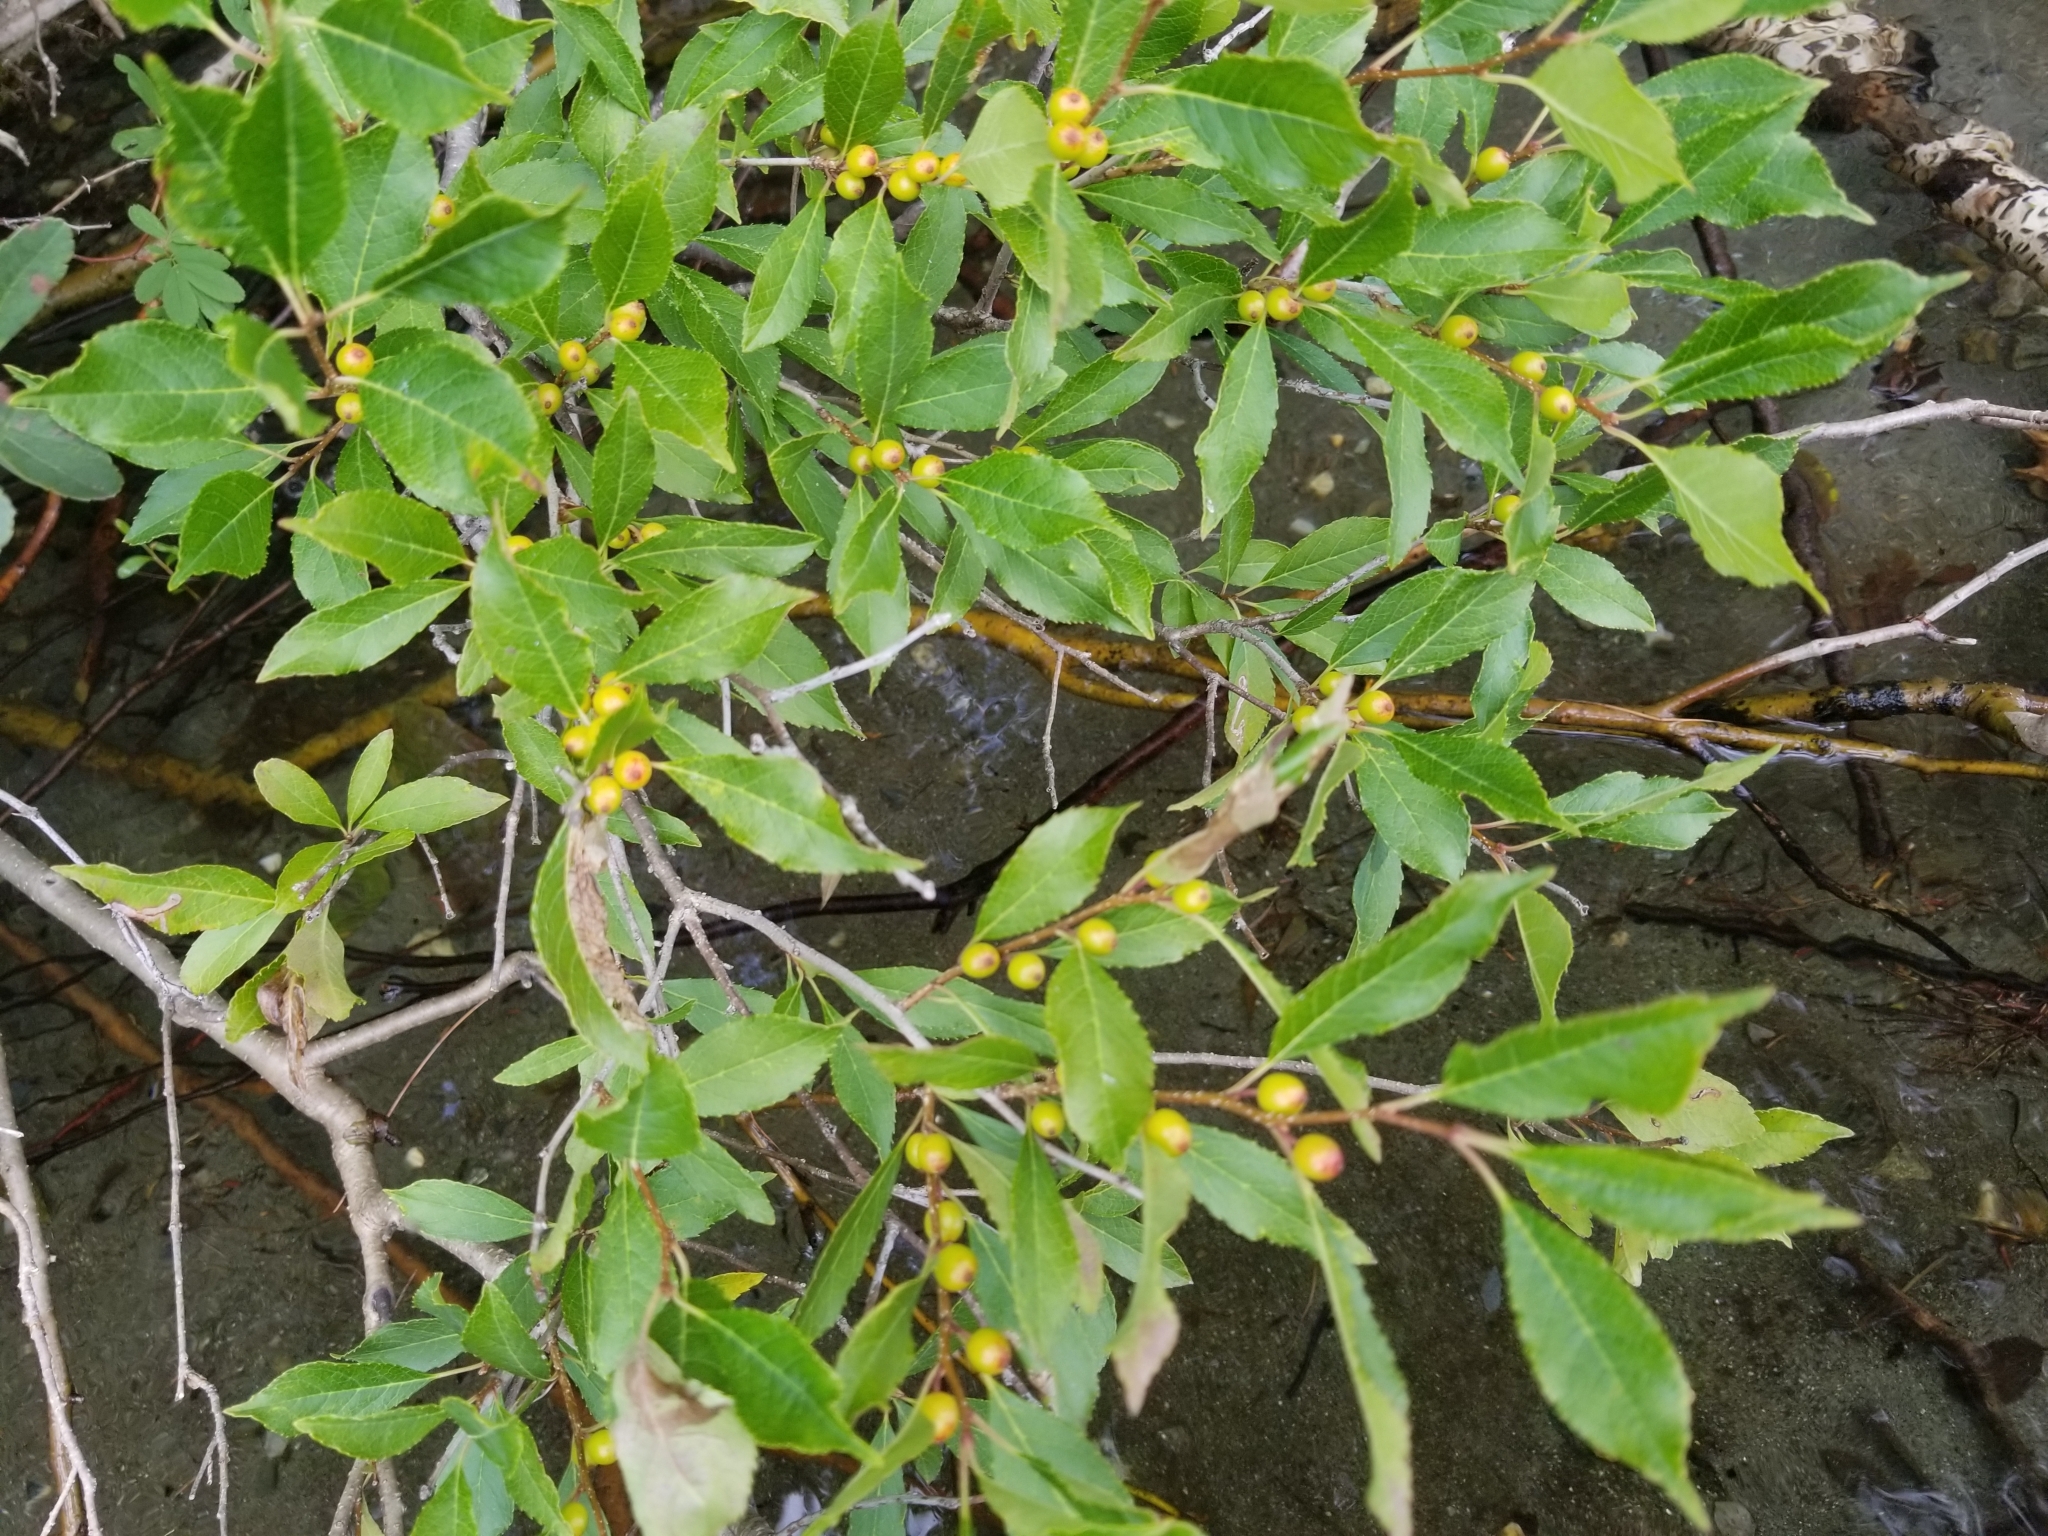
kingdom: Plantae
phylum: Tracheophyta
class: Magnoliopsida
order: Aquifoliales
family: Aquifoliaceae
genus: Ilex
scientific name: Ilex verticillata
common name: Virginia winterberry
